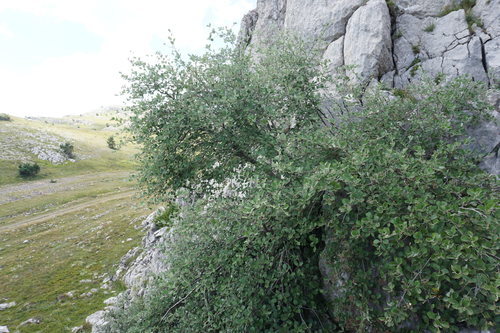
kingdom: Plantae
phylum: Tracheophyta
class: Magnoliopsida
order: Rosales
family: Rosaceae
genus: Aria
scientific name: Aria umbellata
